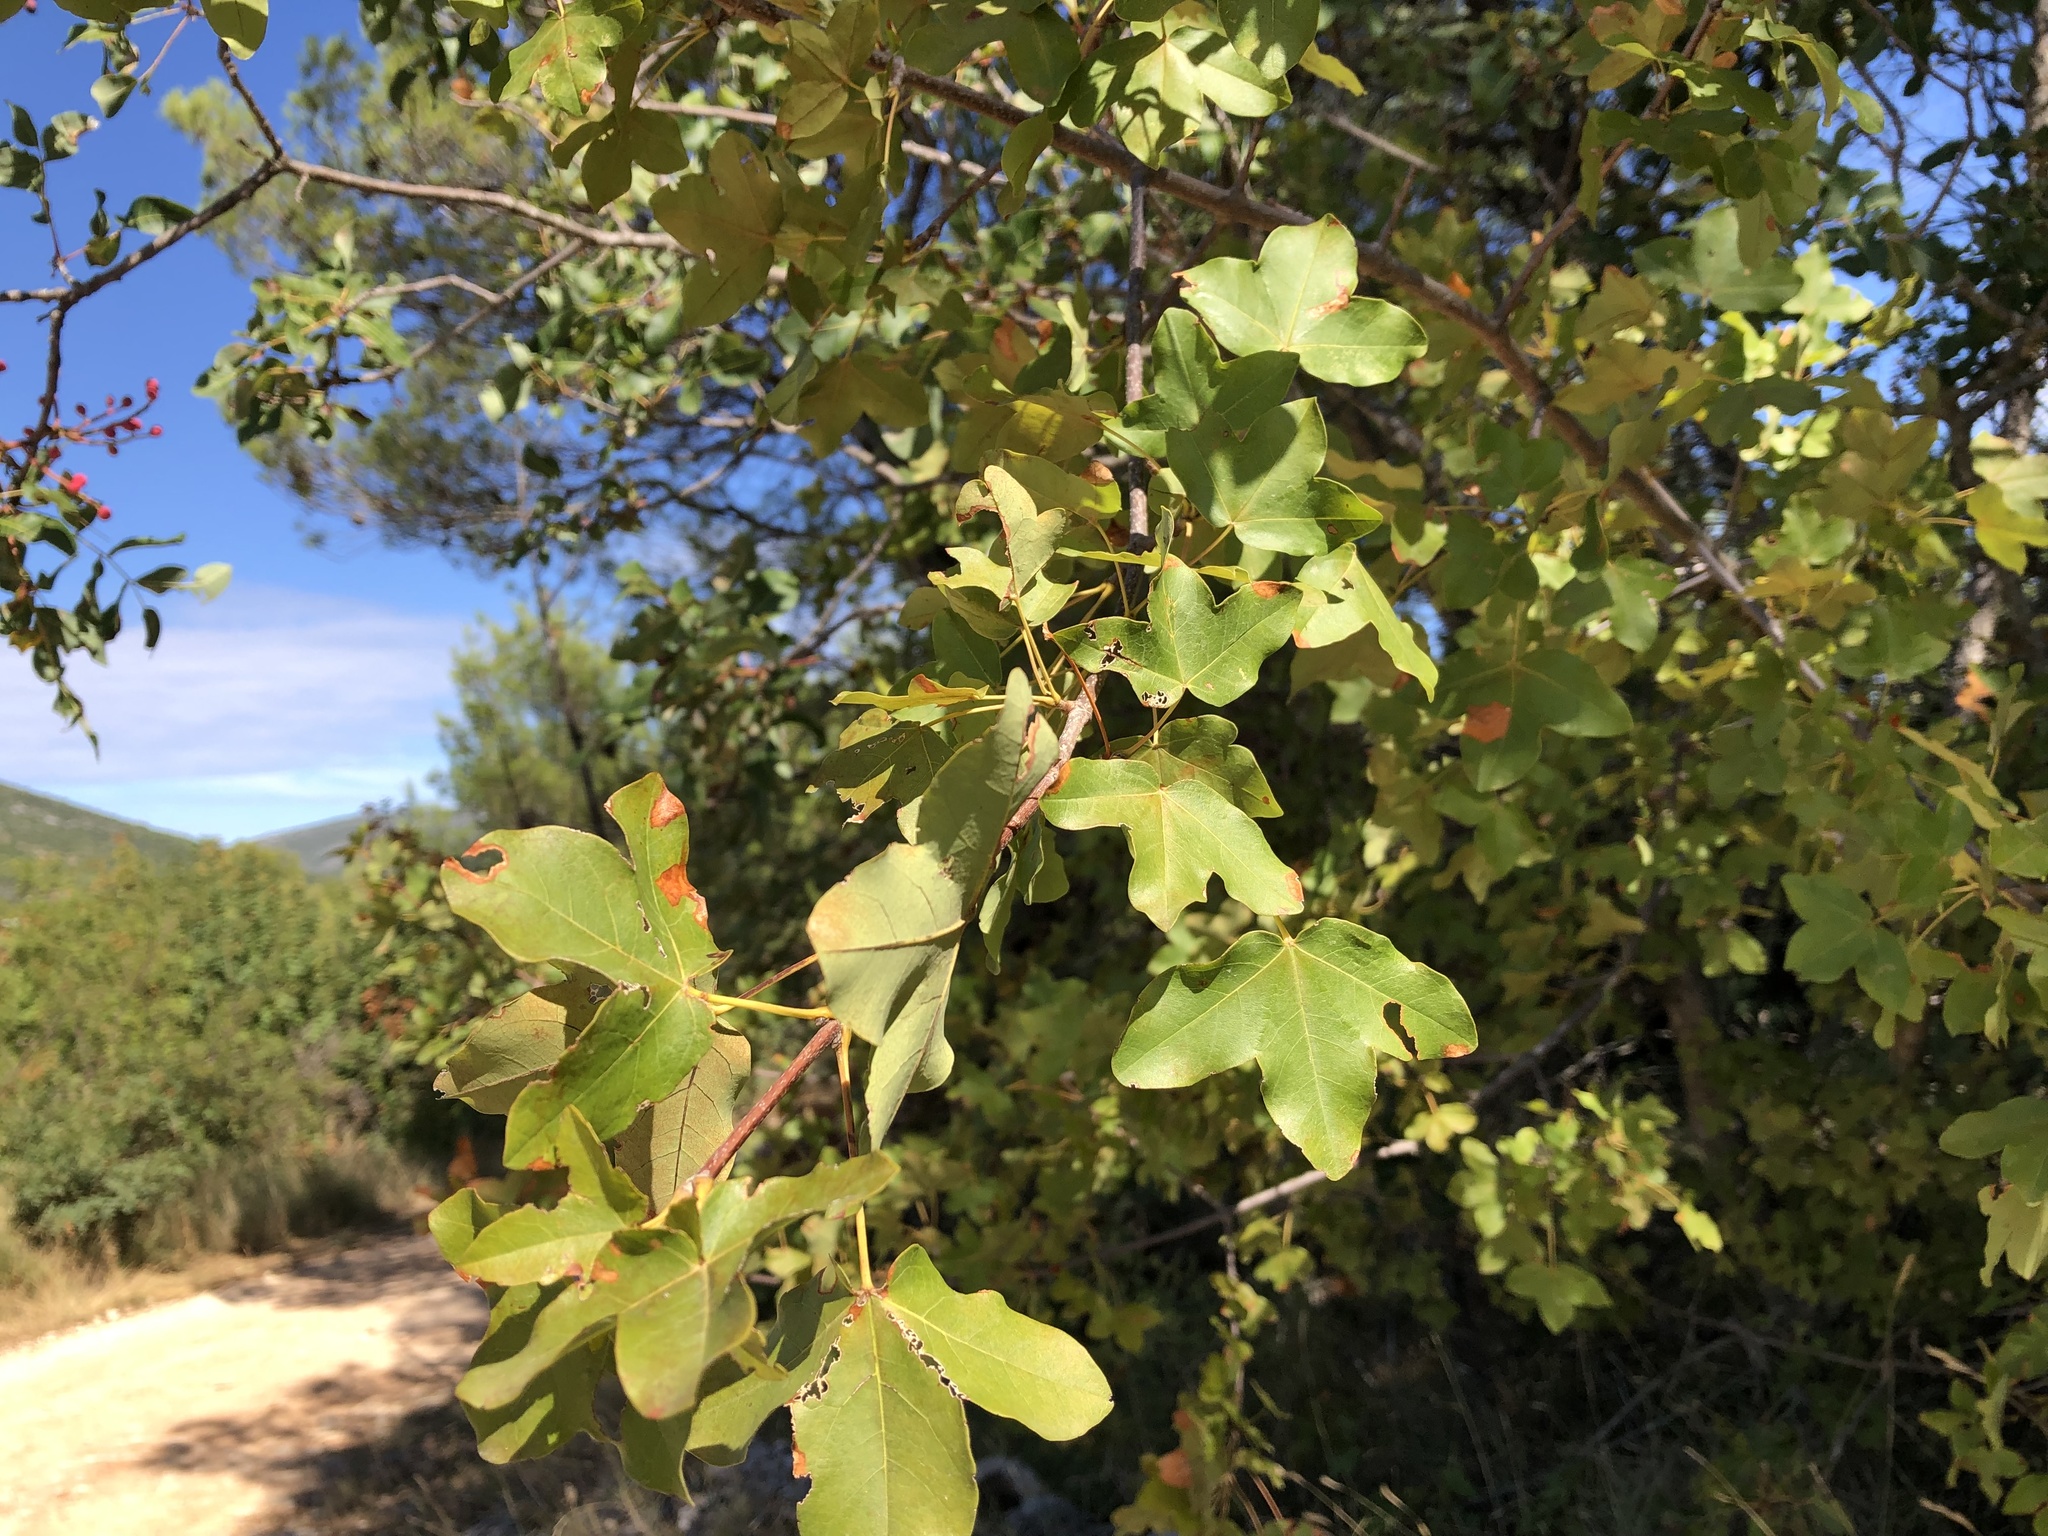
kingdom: Plantae
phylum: Tracheophyta
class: Magnoliopsida
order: Sapindales
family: Sapindaceae
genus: Acer
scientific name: Acer monspessulanum
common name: Montpellier maple
